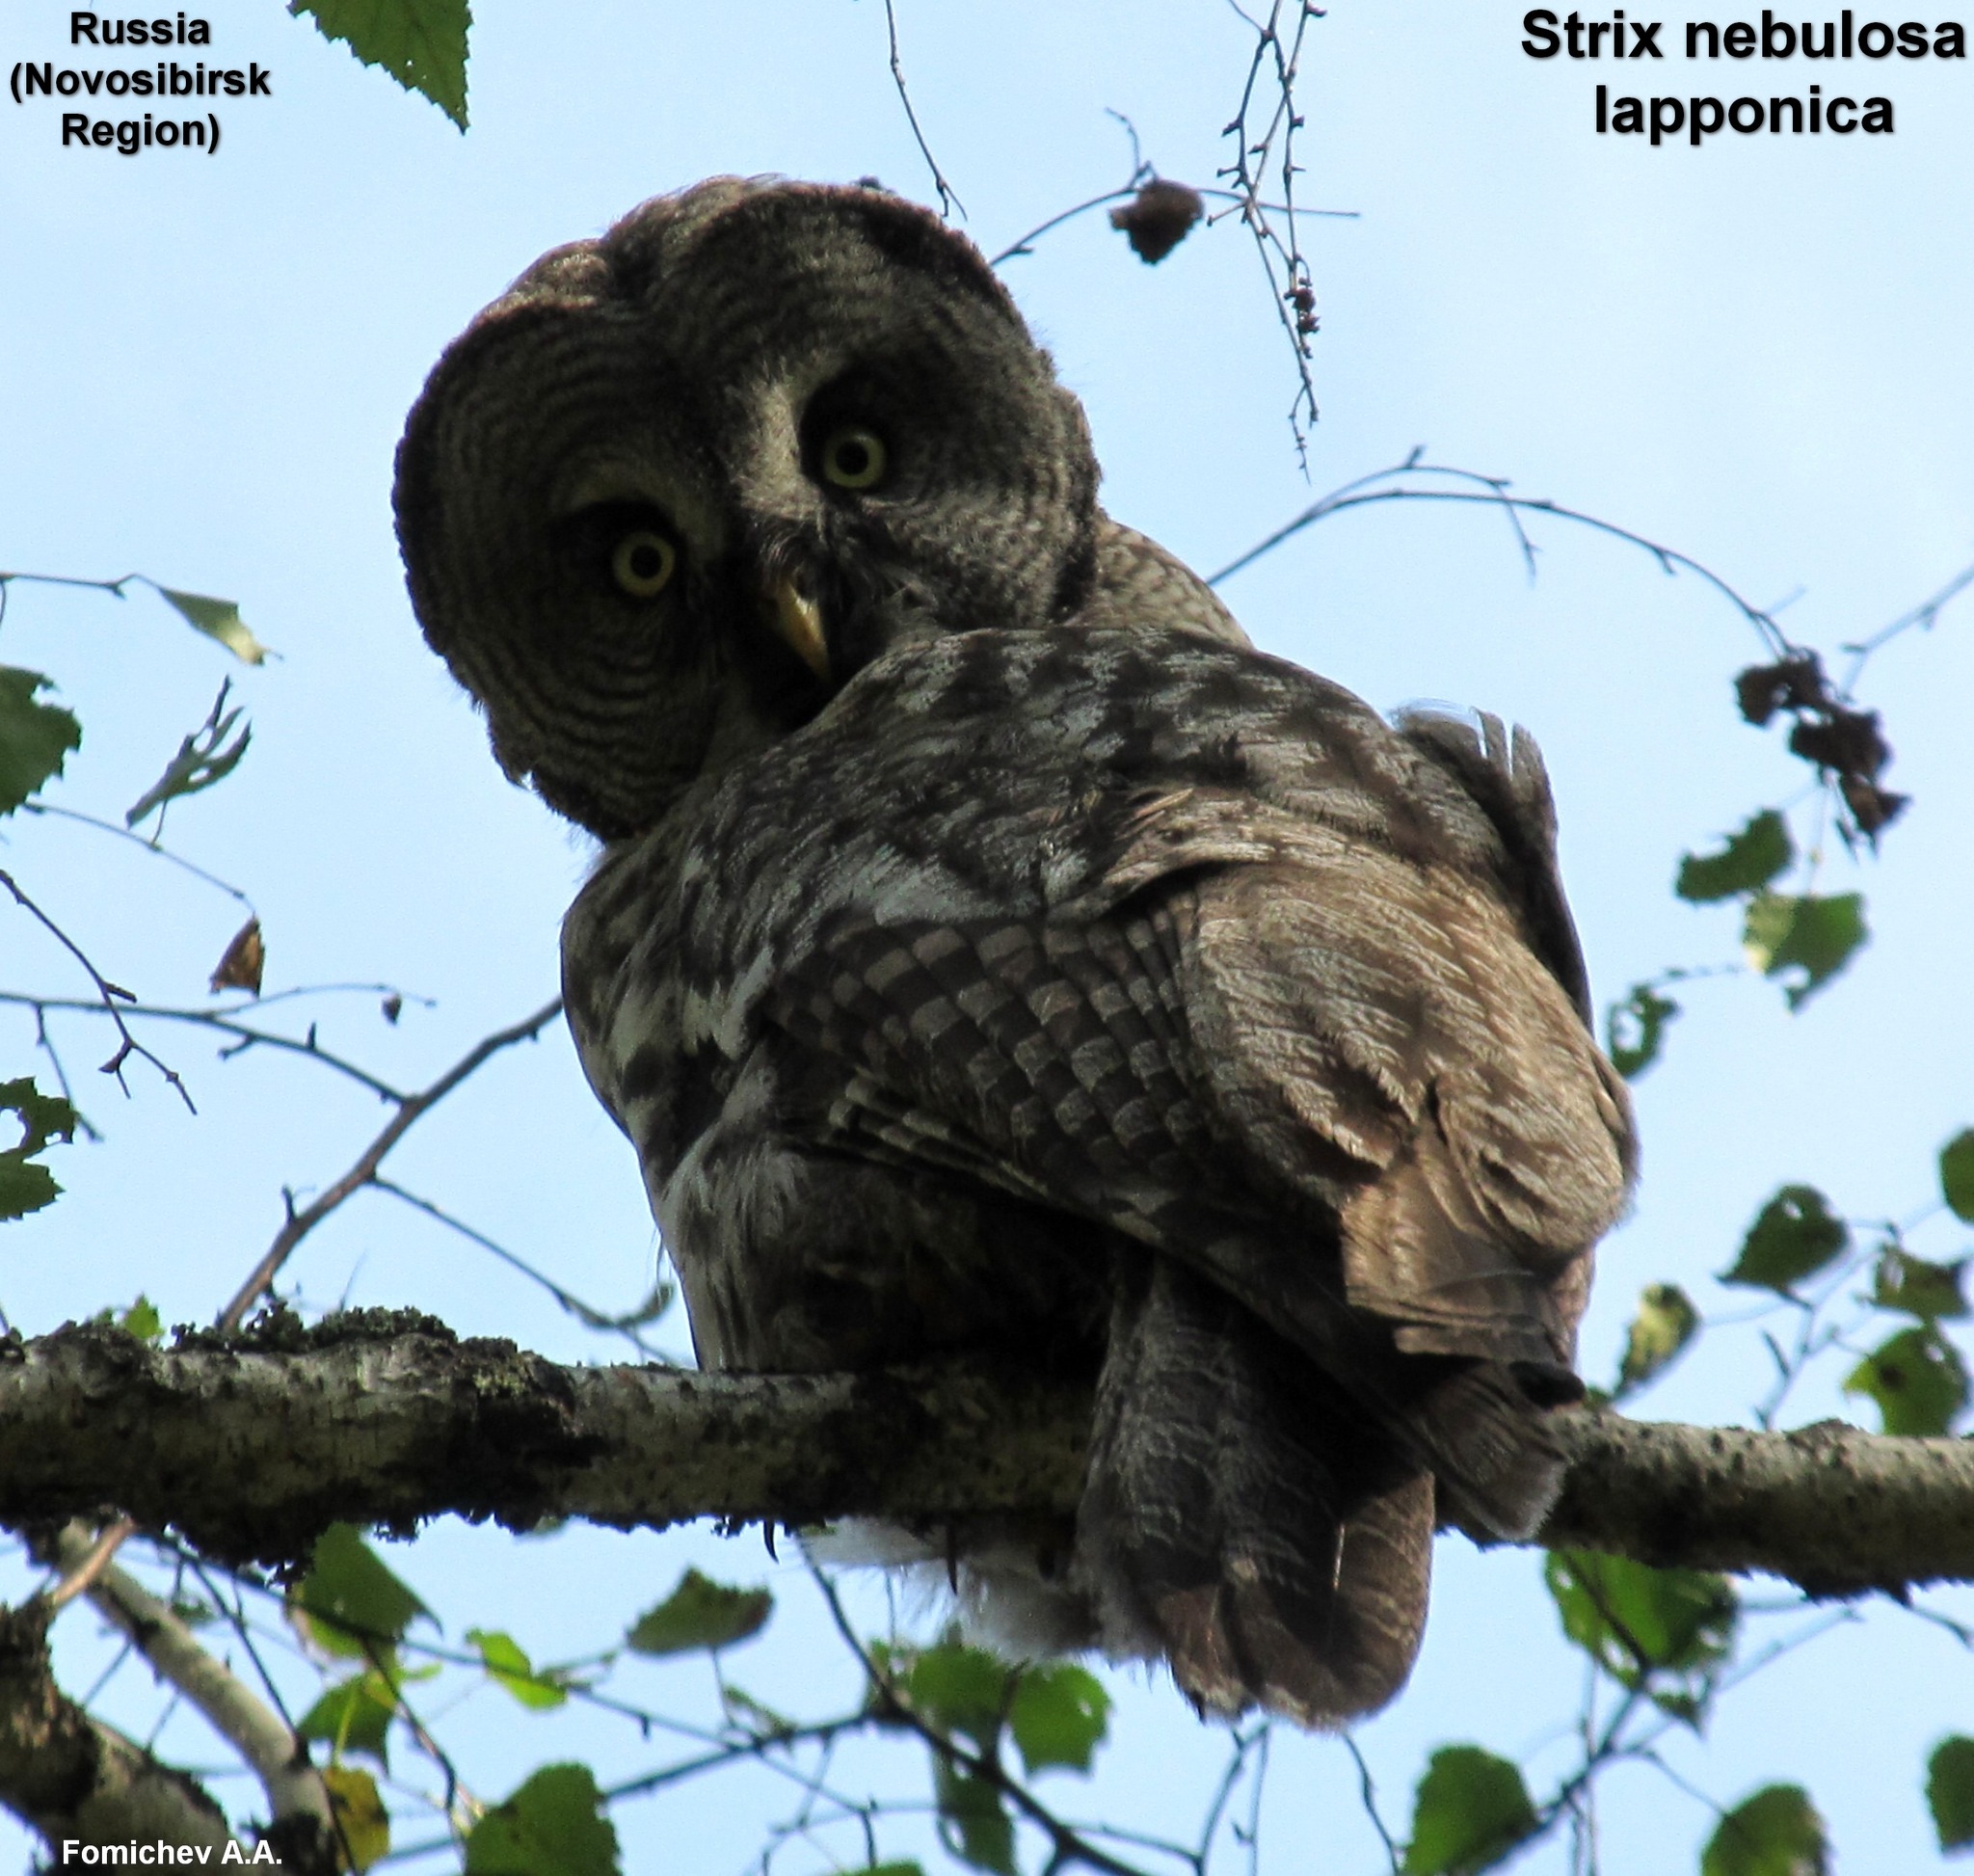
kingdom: Animalia
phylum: Chordata
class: Aves
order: Strigiformes
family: Strigidae
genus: Strix
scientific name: Strix nebulosa
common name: Great grey owl
